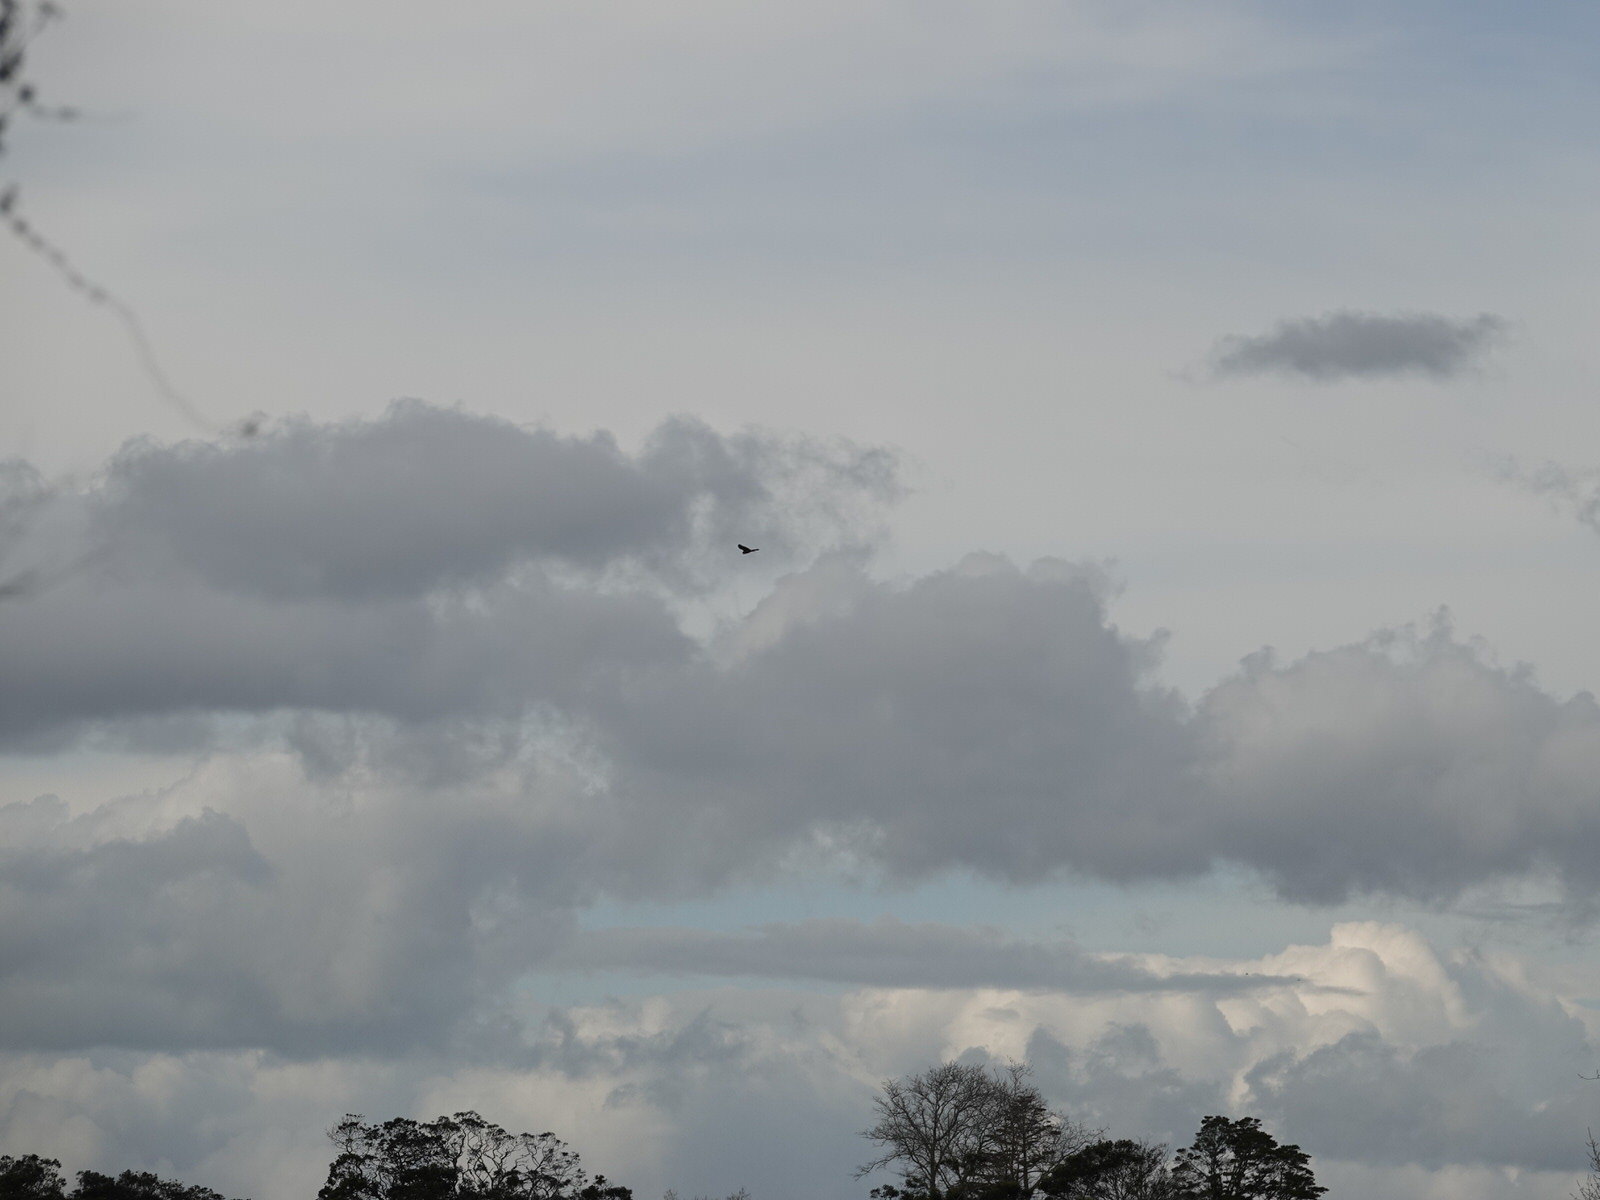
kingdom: Animalia
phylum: Chordata
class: Aves
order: Accipitriformes
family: Accipitridae
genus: Circus
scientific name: Circus approximans
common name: Swamp harrier
